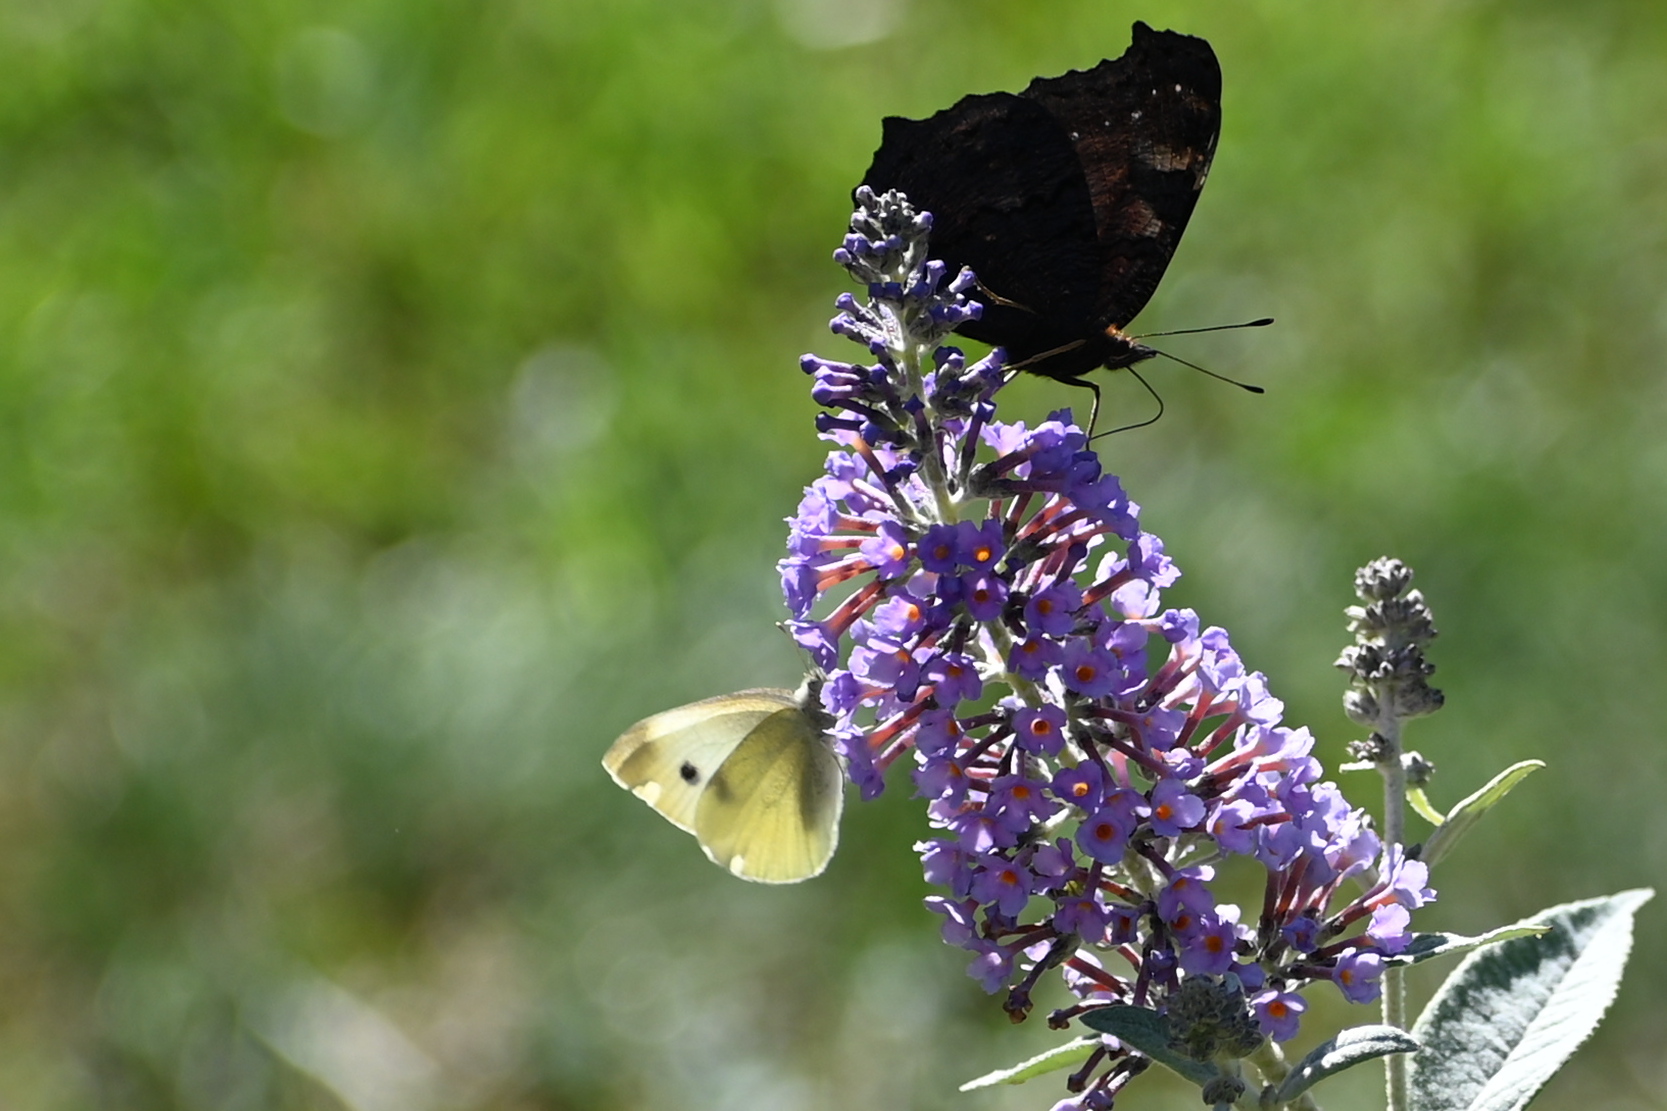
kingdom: Animalia
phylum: Arthropoda
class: Insecta
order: Lepidoptera
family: Pieridae
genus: Pieris
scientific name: Pieris rapae
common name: Small white
